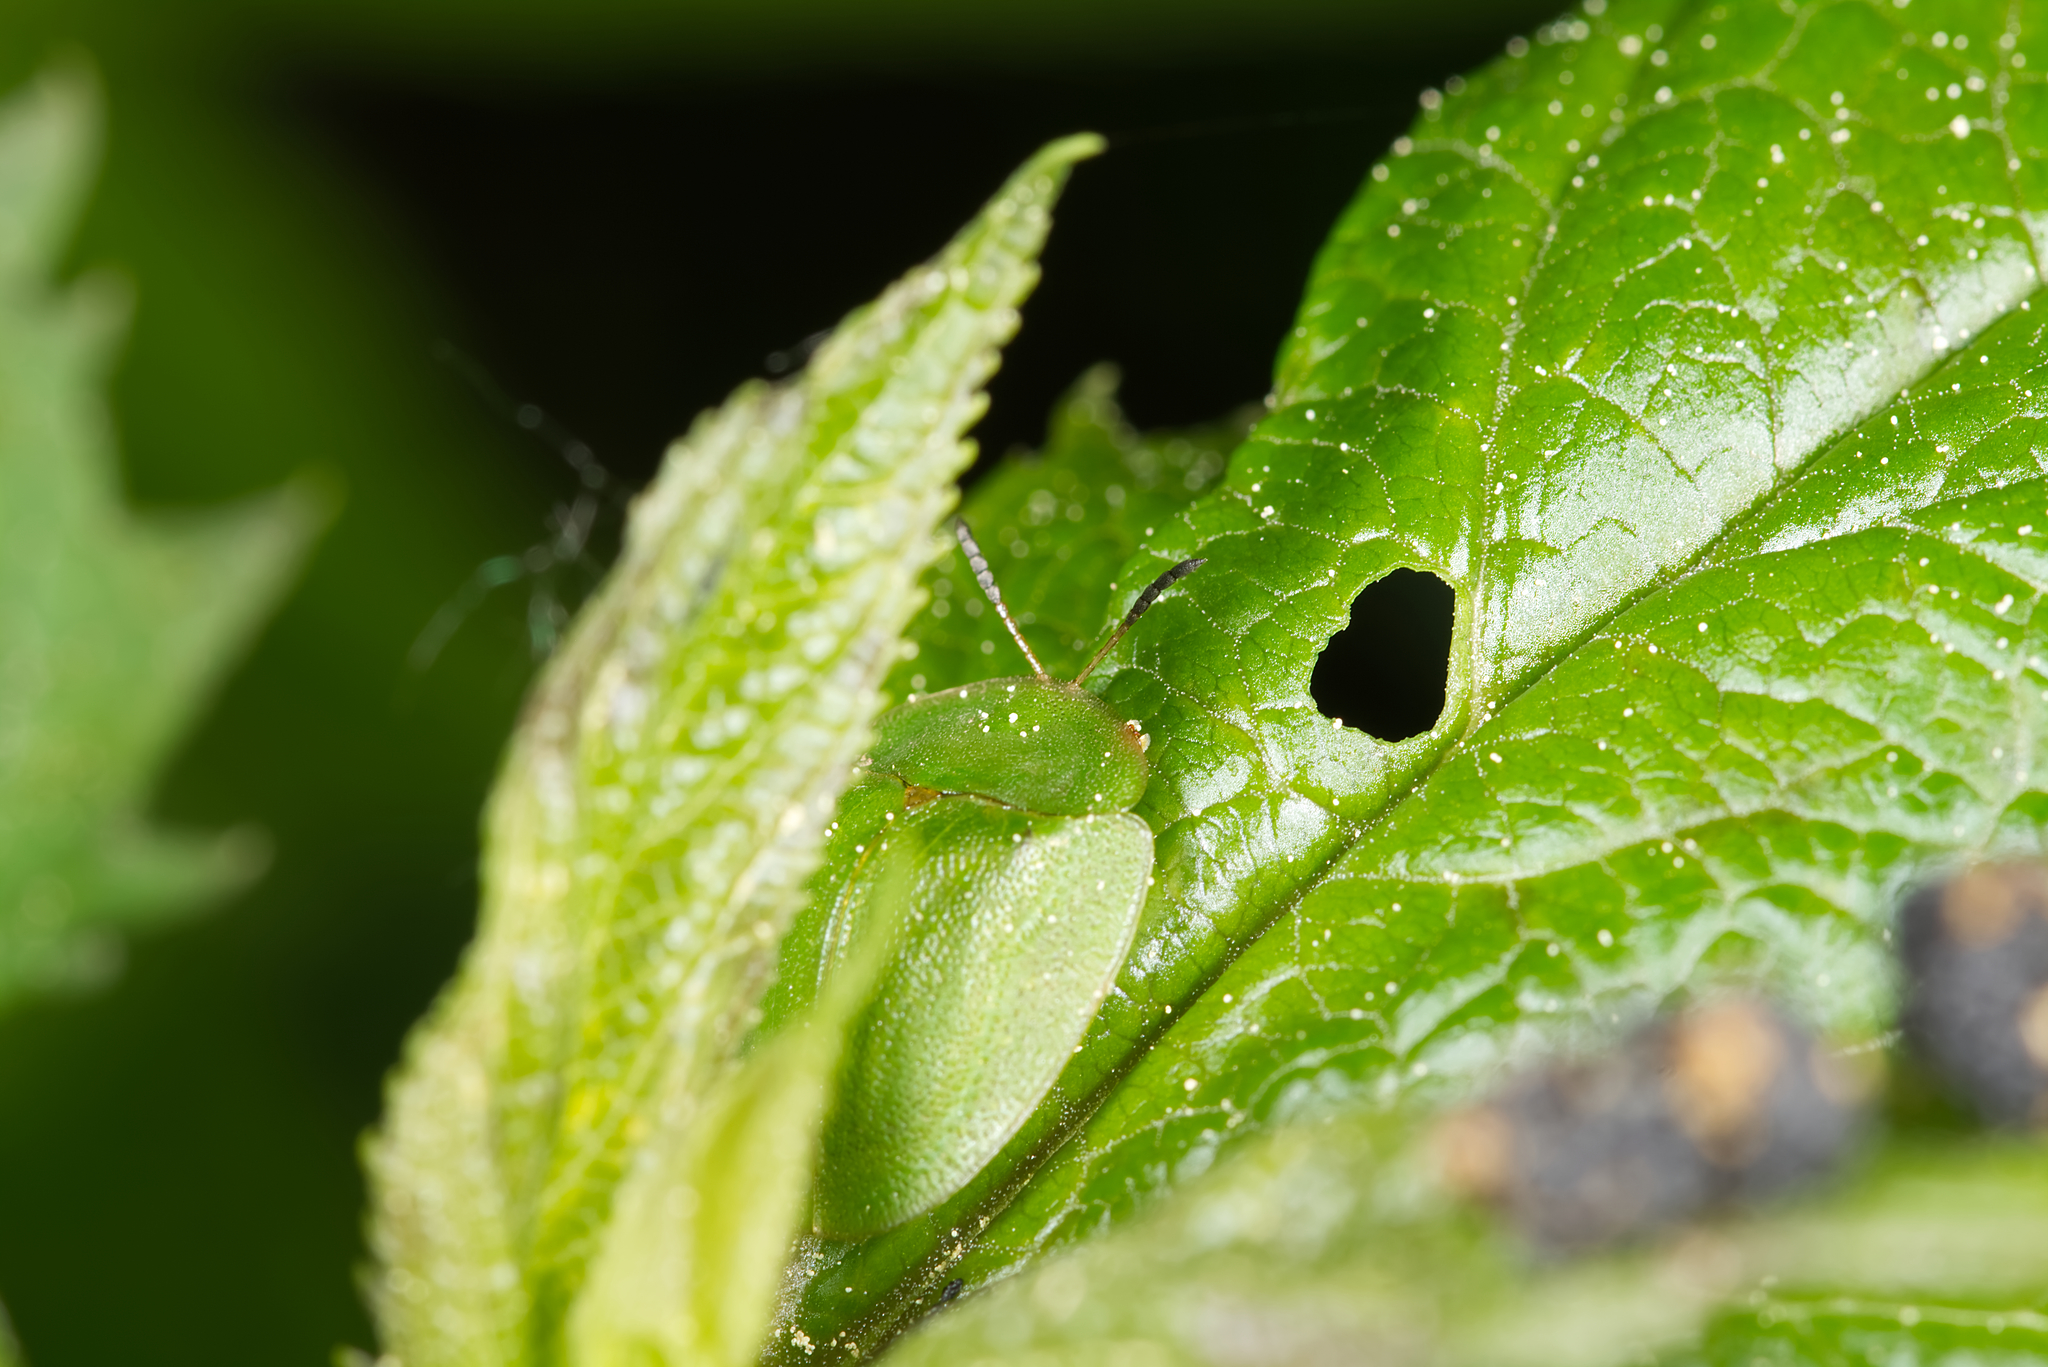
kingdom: Animalia
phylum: Arthropoda
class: Insecta
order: Coleoptera
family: Chrysomelidae
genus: Cassida
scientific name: Cassida viridis
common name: Green tortoise beetle
